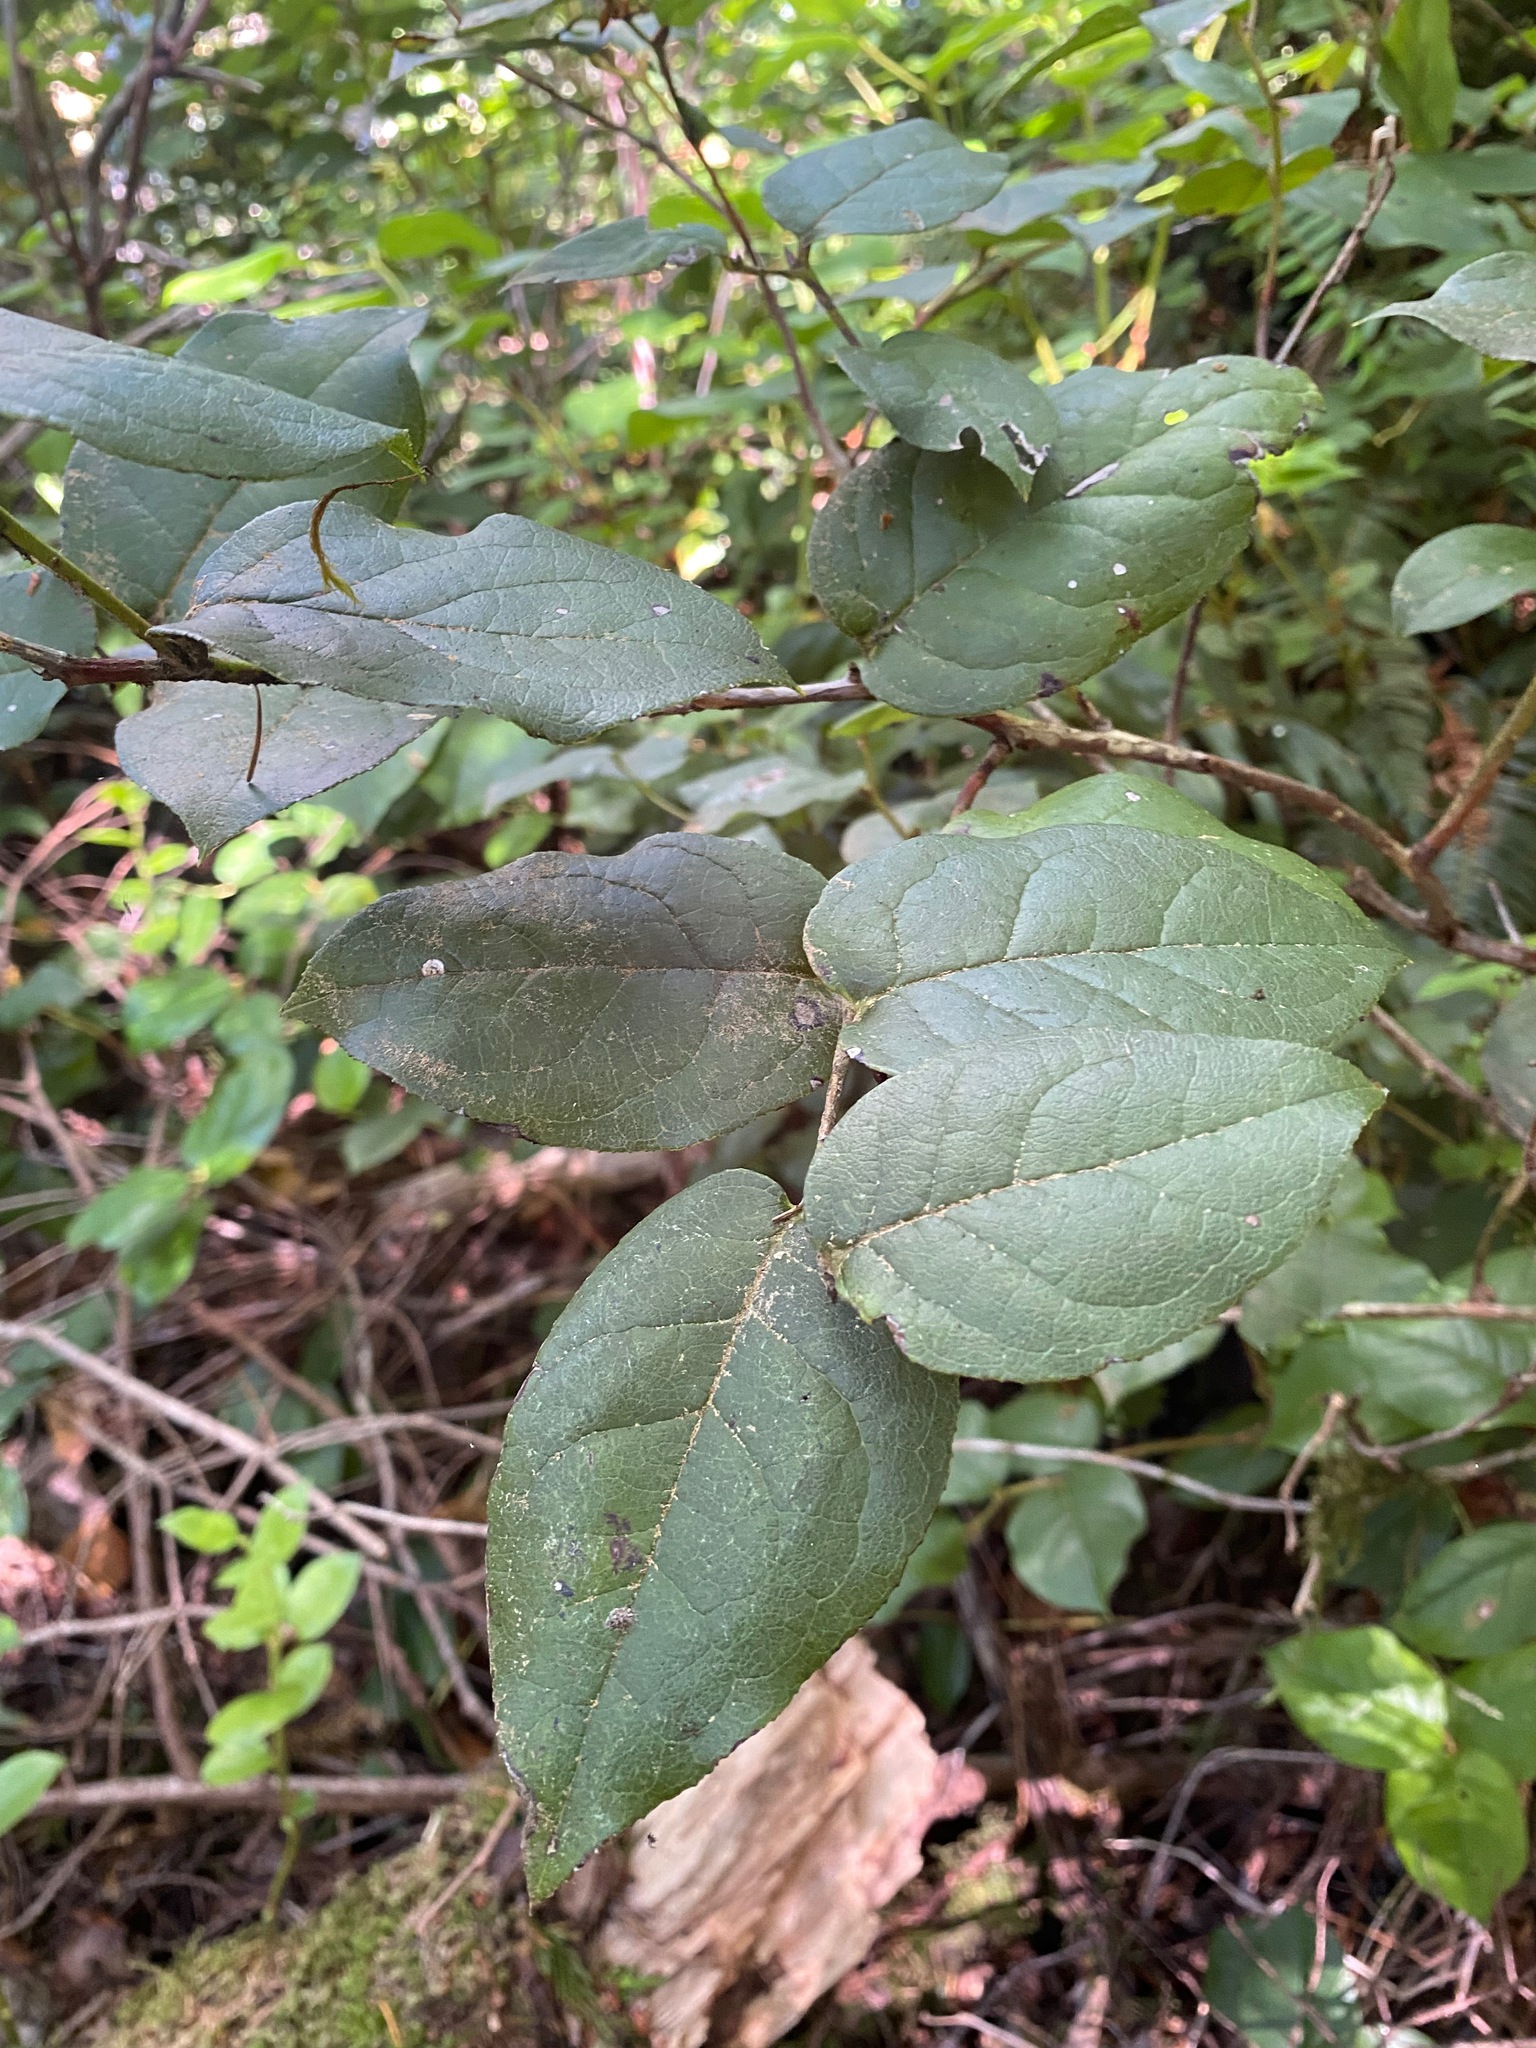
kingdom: Plantae
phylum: Tracheophyta
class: Magnoliopsida
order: Ericales
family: Ericaceae
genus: Gaultheria
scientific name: Gaultheria shallon
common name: Shallon
